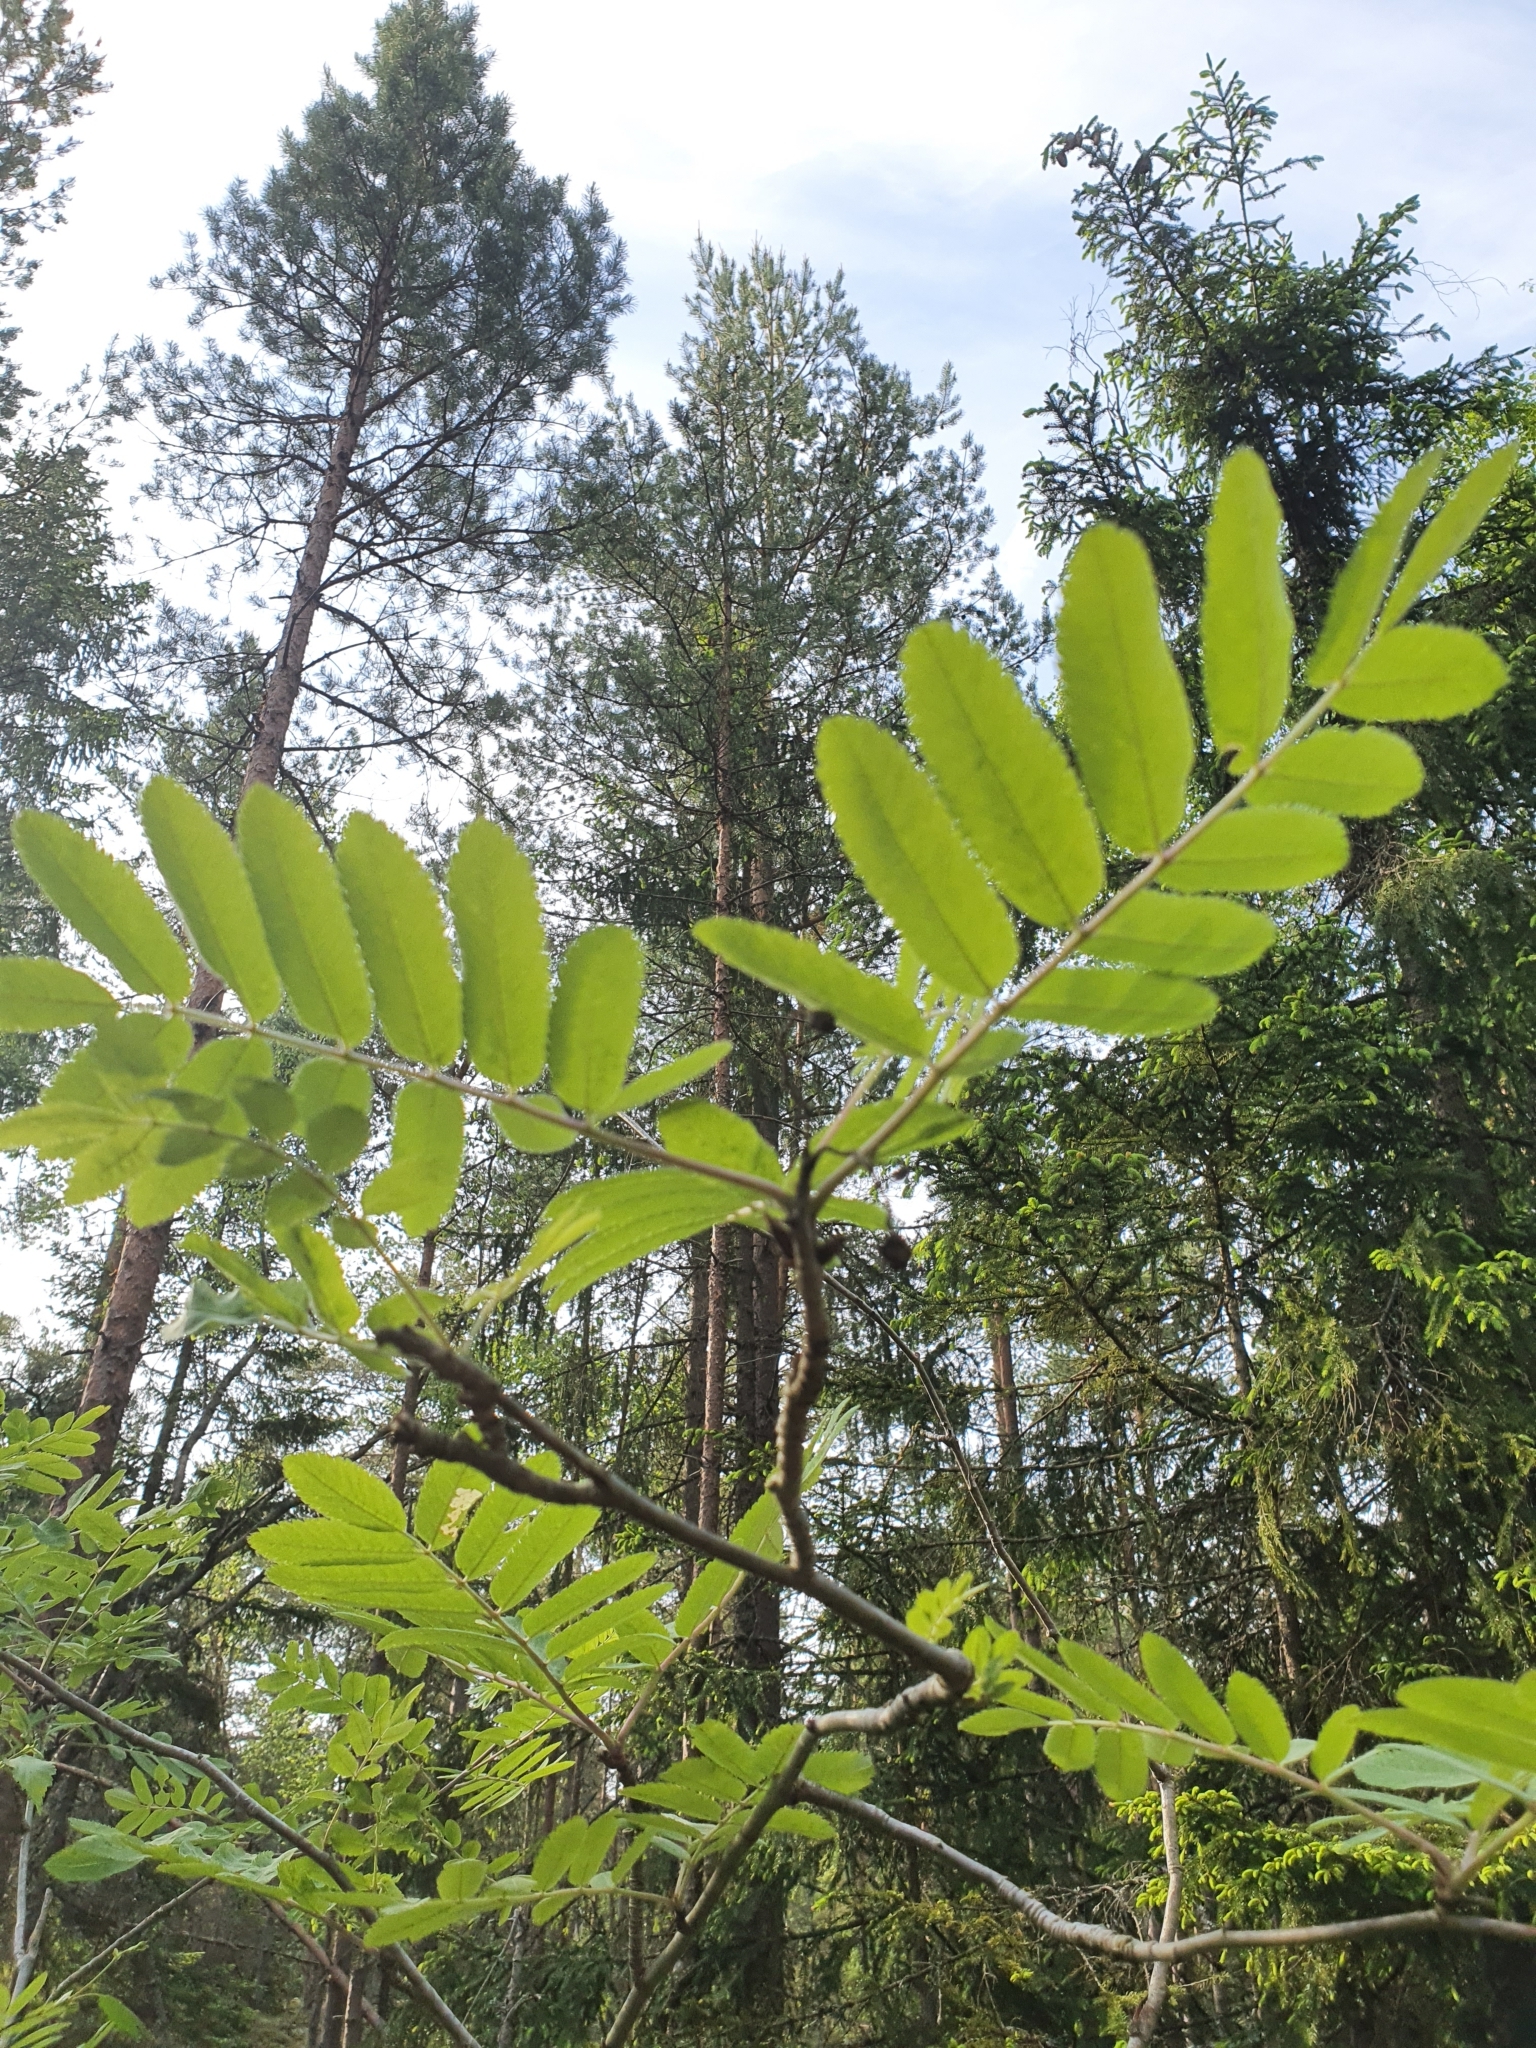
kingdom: Plantae
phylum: Tracheophyta
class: Magnoliopsida
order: Rosales
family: Rosaceae
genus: Sorbus
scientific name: Sorbus aucuparia
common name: Rowan
